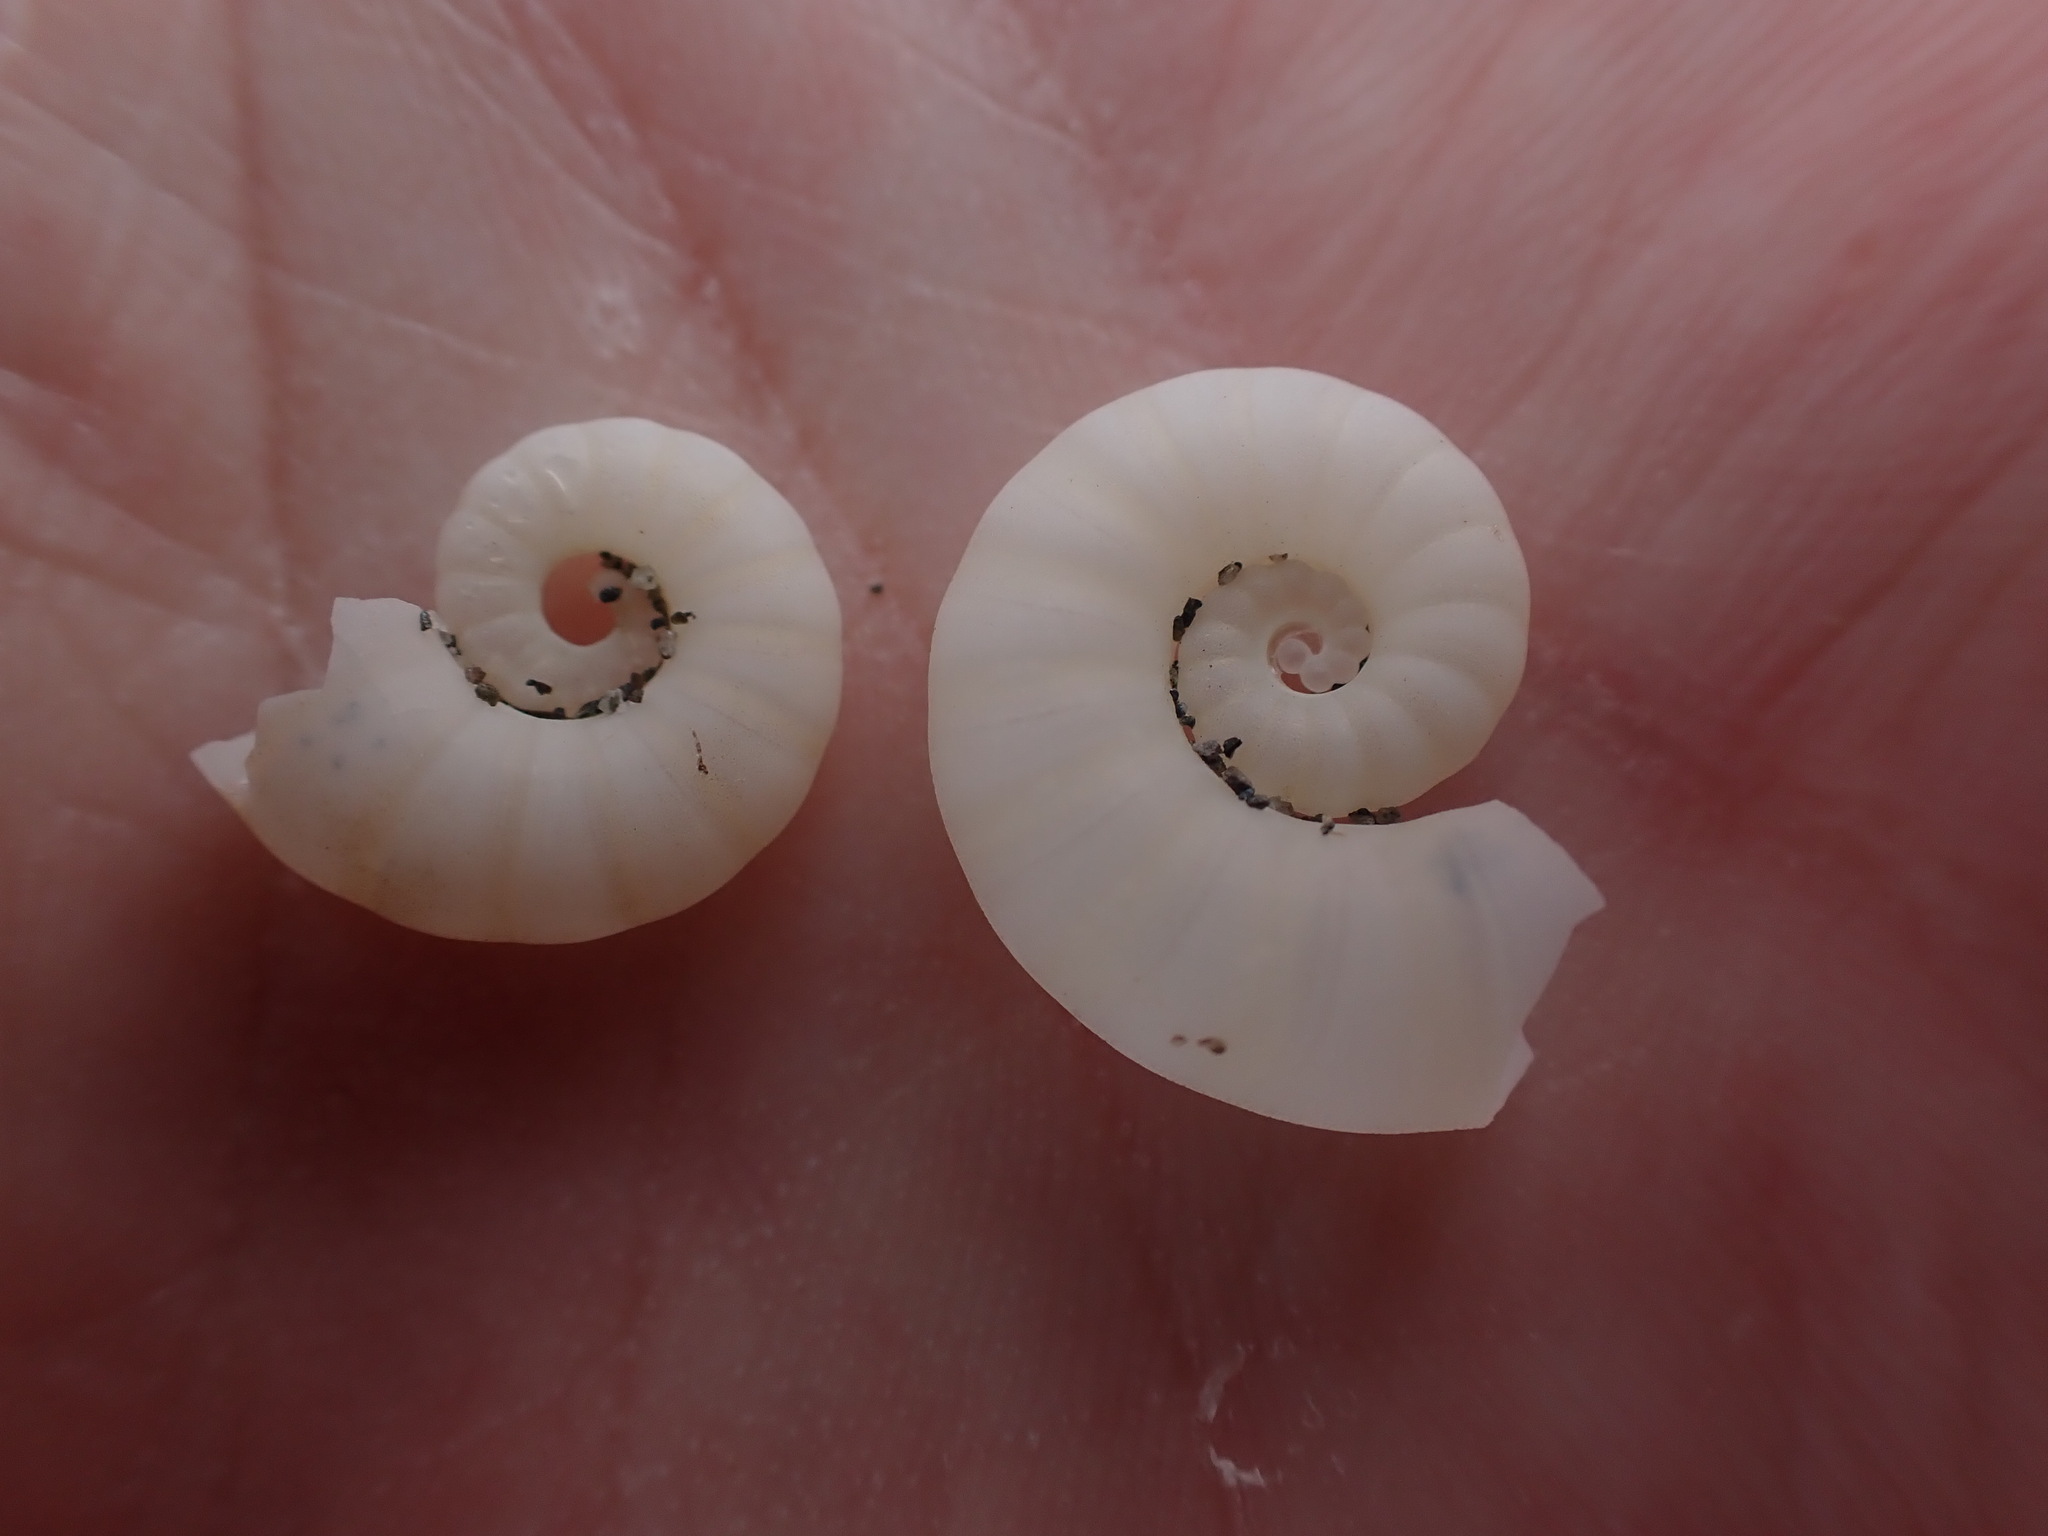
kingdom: Animalia
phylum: Mollusca
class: Cephalopoda
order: Spirulida
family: Spirulidae
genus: Spirula
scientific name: Spirula spirula
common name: Ram's horn squid
